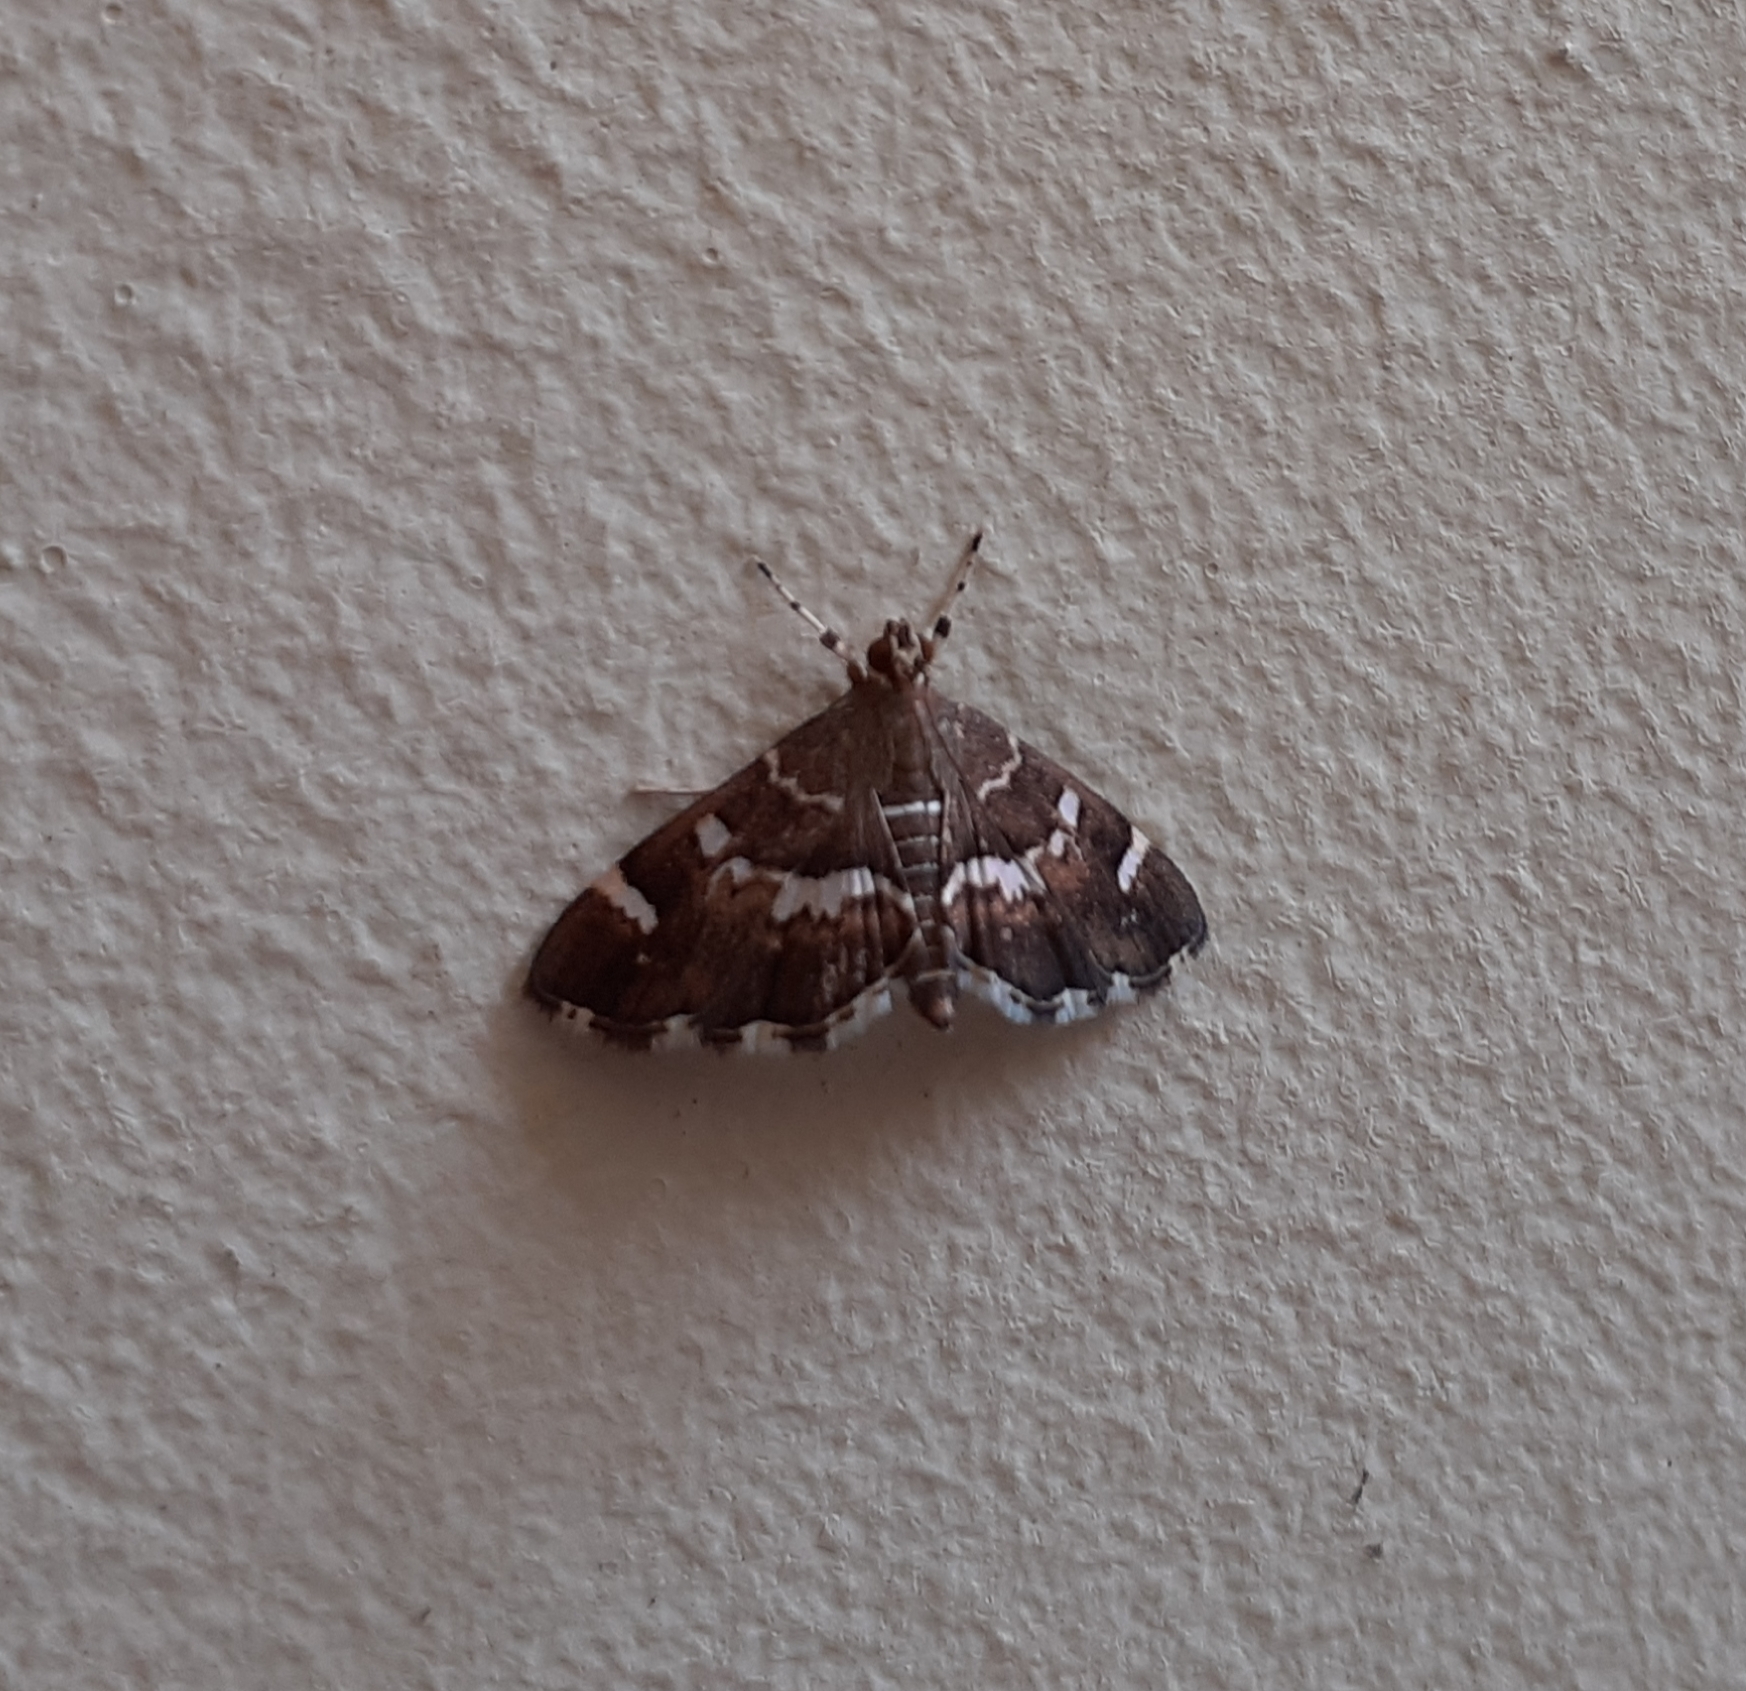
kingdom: Animalia
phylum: Arthropoda
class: Insecta
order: Lepidoptera
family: Crambidae
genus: Hymenia
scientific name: Hymenia perspectalis
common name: Spotted beet webworm
